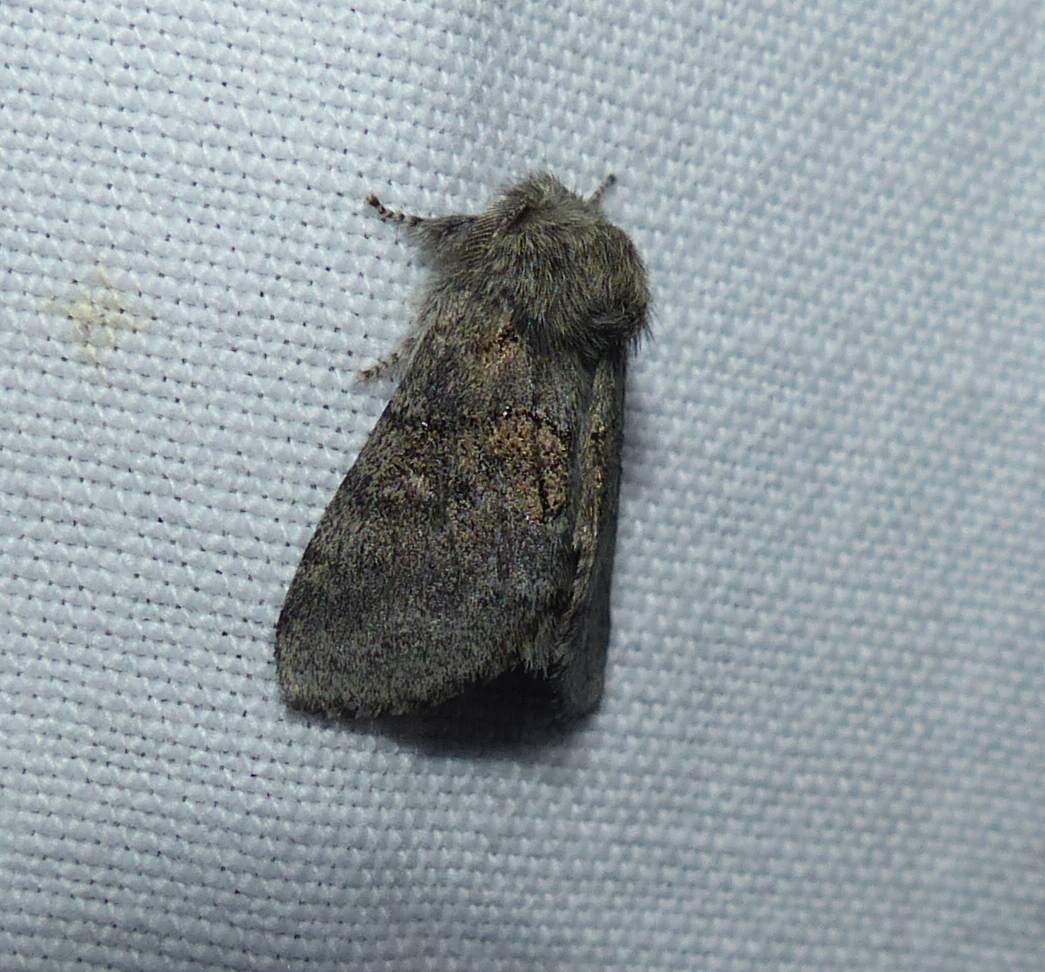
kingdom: Animalia
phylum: Arthropoda
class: Insecta
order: Lepidoptera
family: Notodontidae
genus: Gluphisia
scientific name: Gluphisia septentrionis
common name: Common gluphisia
